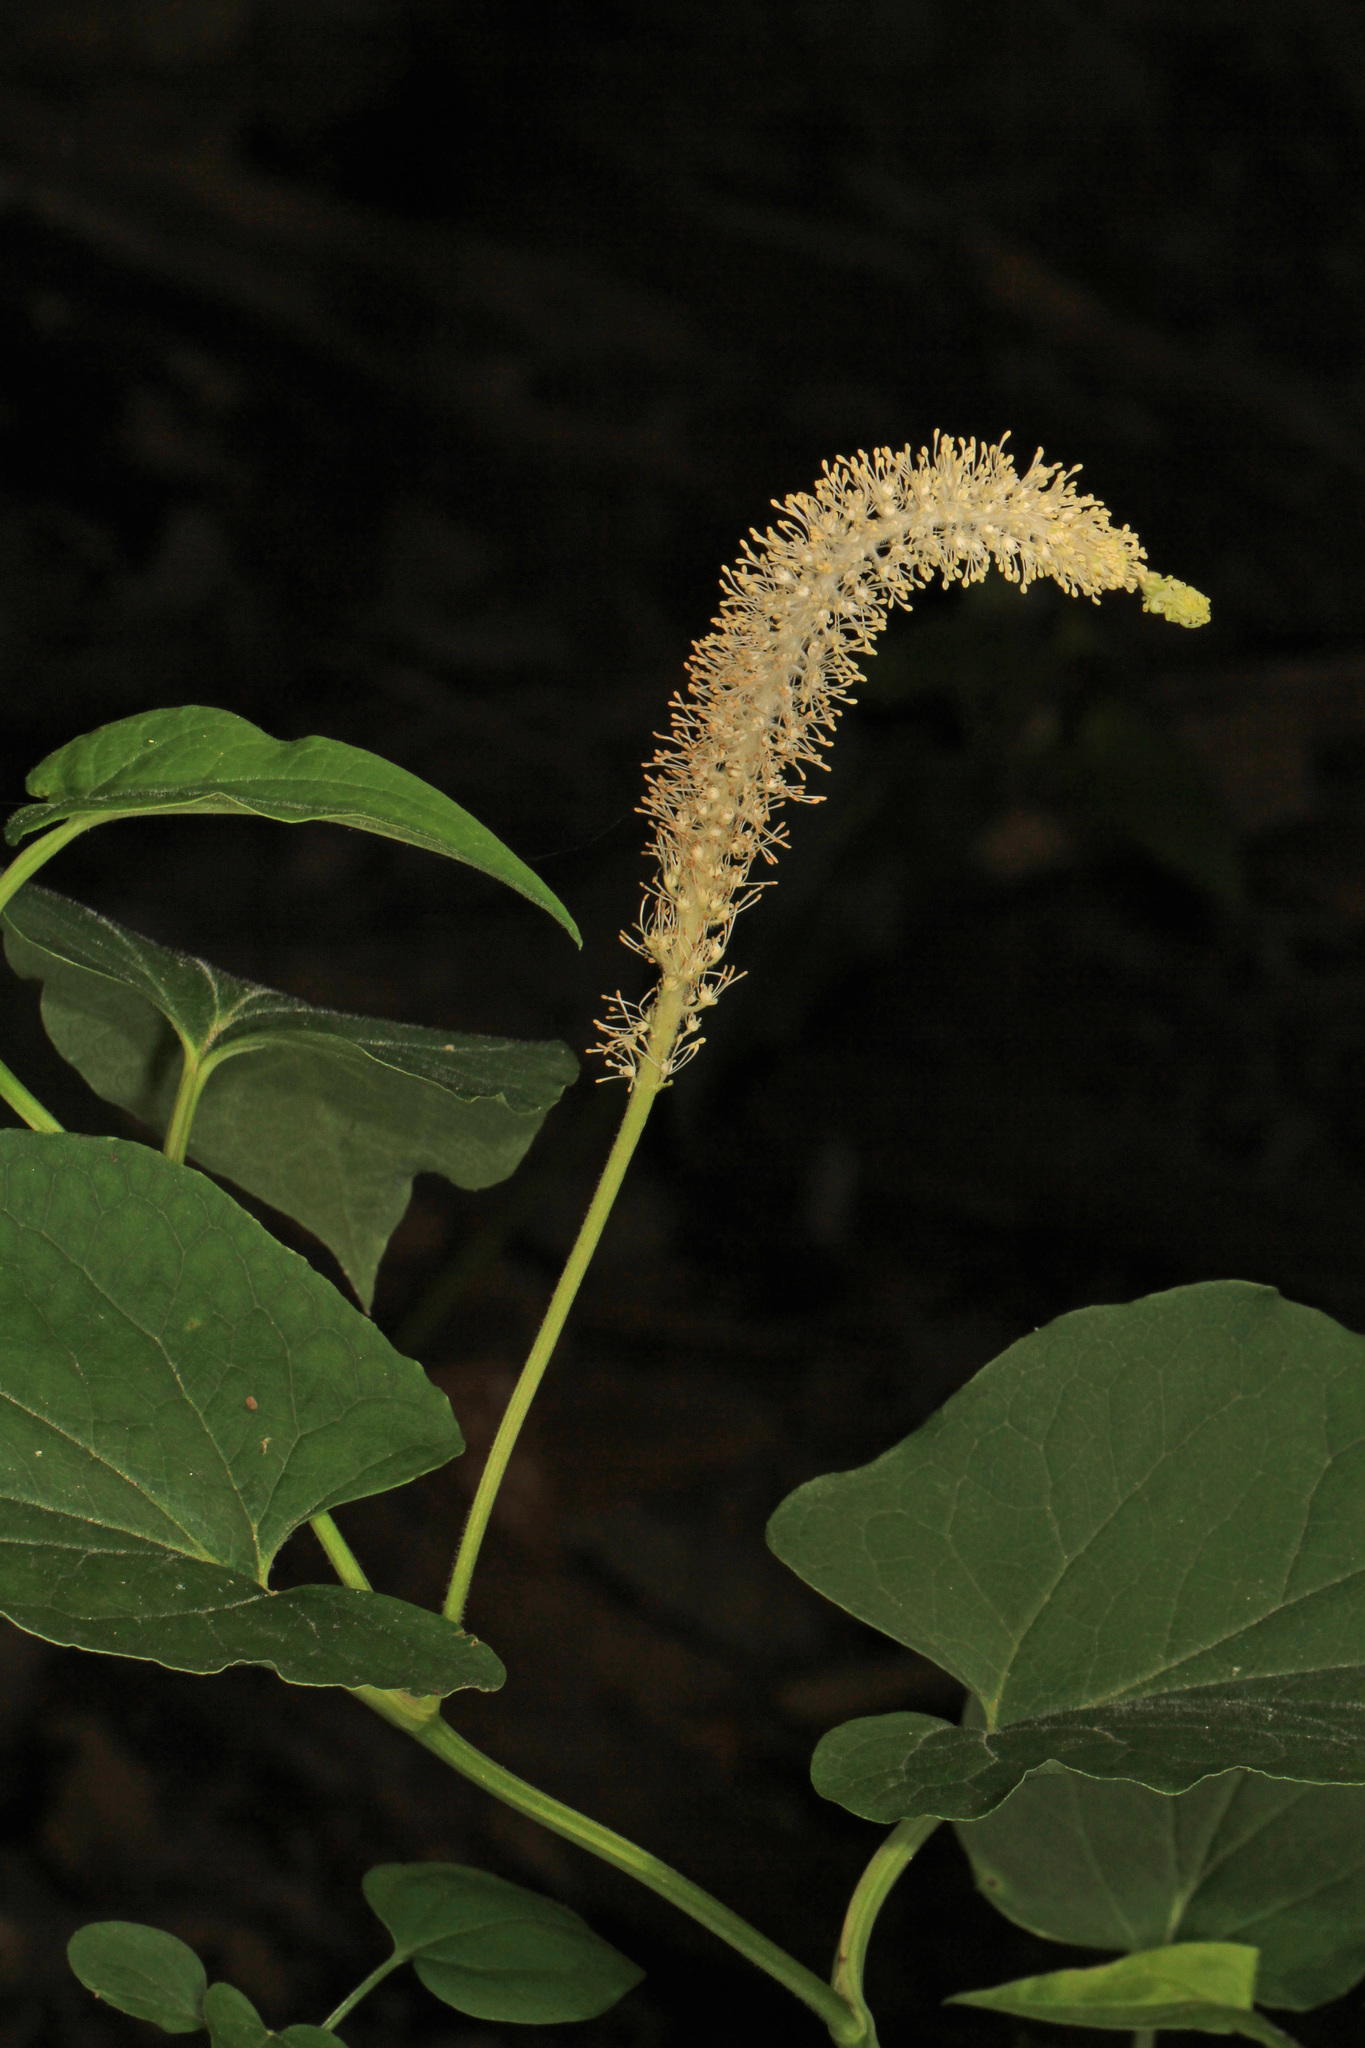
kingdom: Plantae
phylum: Tracheophyta
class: Magnoliopsida
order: Piperales
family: Saururaceae
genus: Saururus
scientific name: Saururus cernuus
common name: Lizard's-tail
